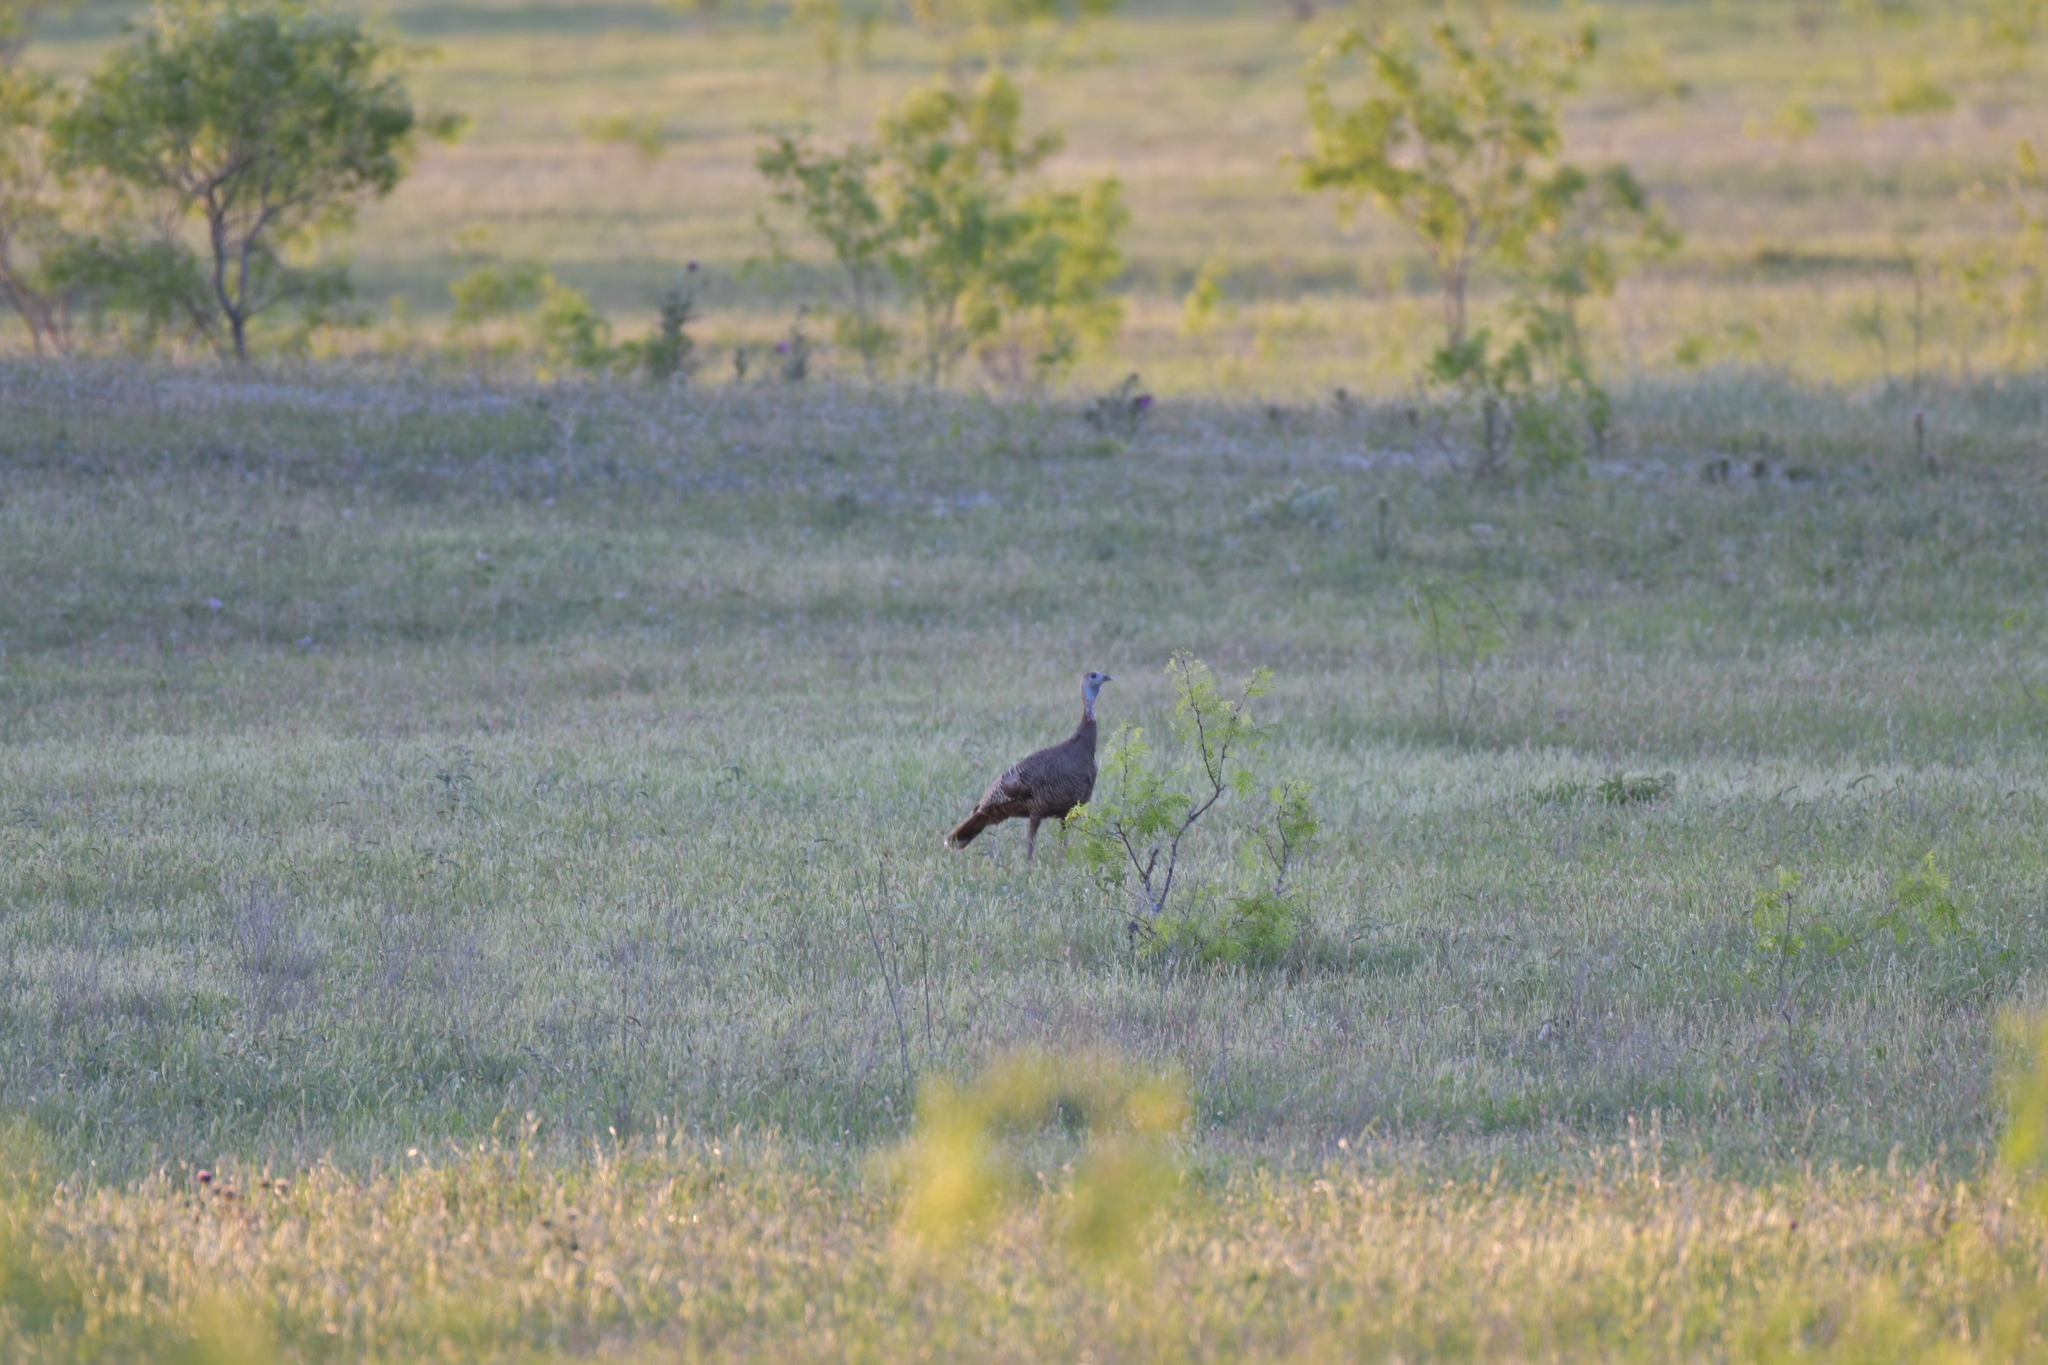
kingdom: Animalia
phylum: Chordata
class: Aves
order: Galliformes
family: Phasianidae
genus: Meleagris
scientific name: Meleagris gallopavo
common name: Wild turkey
